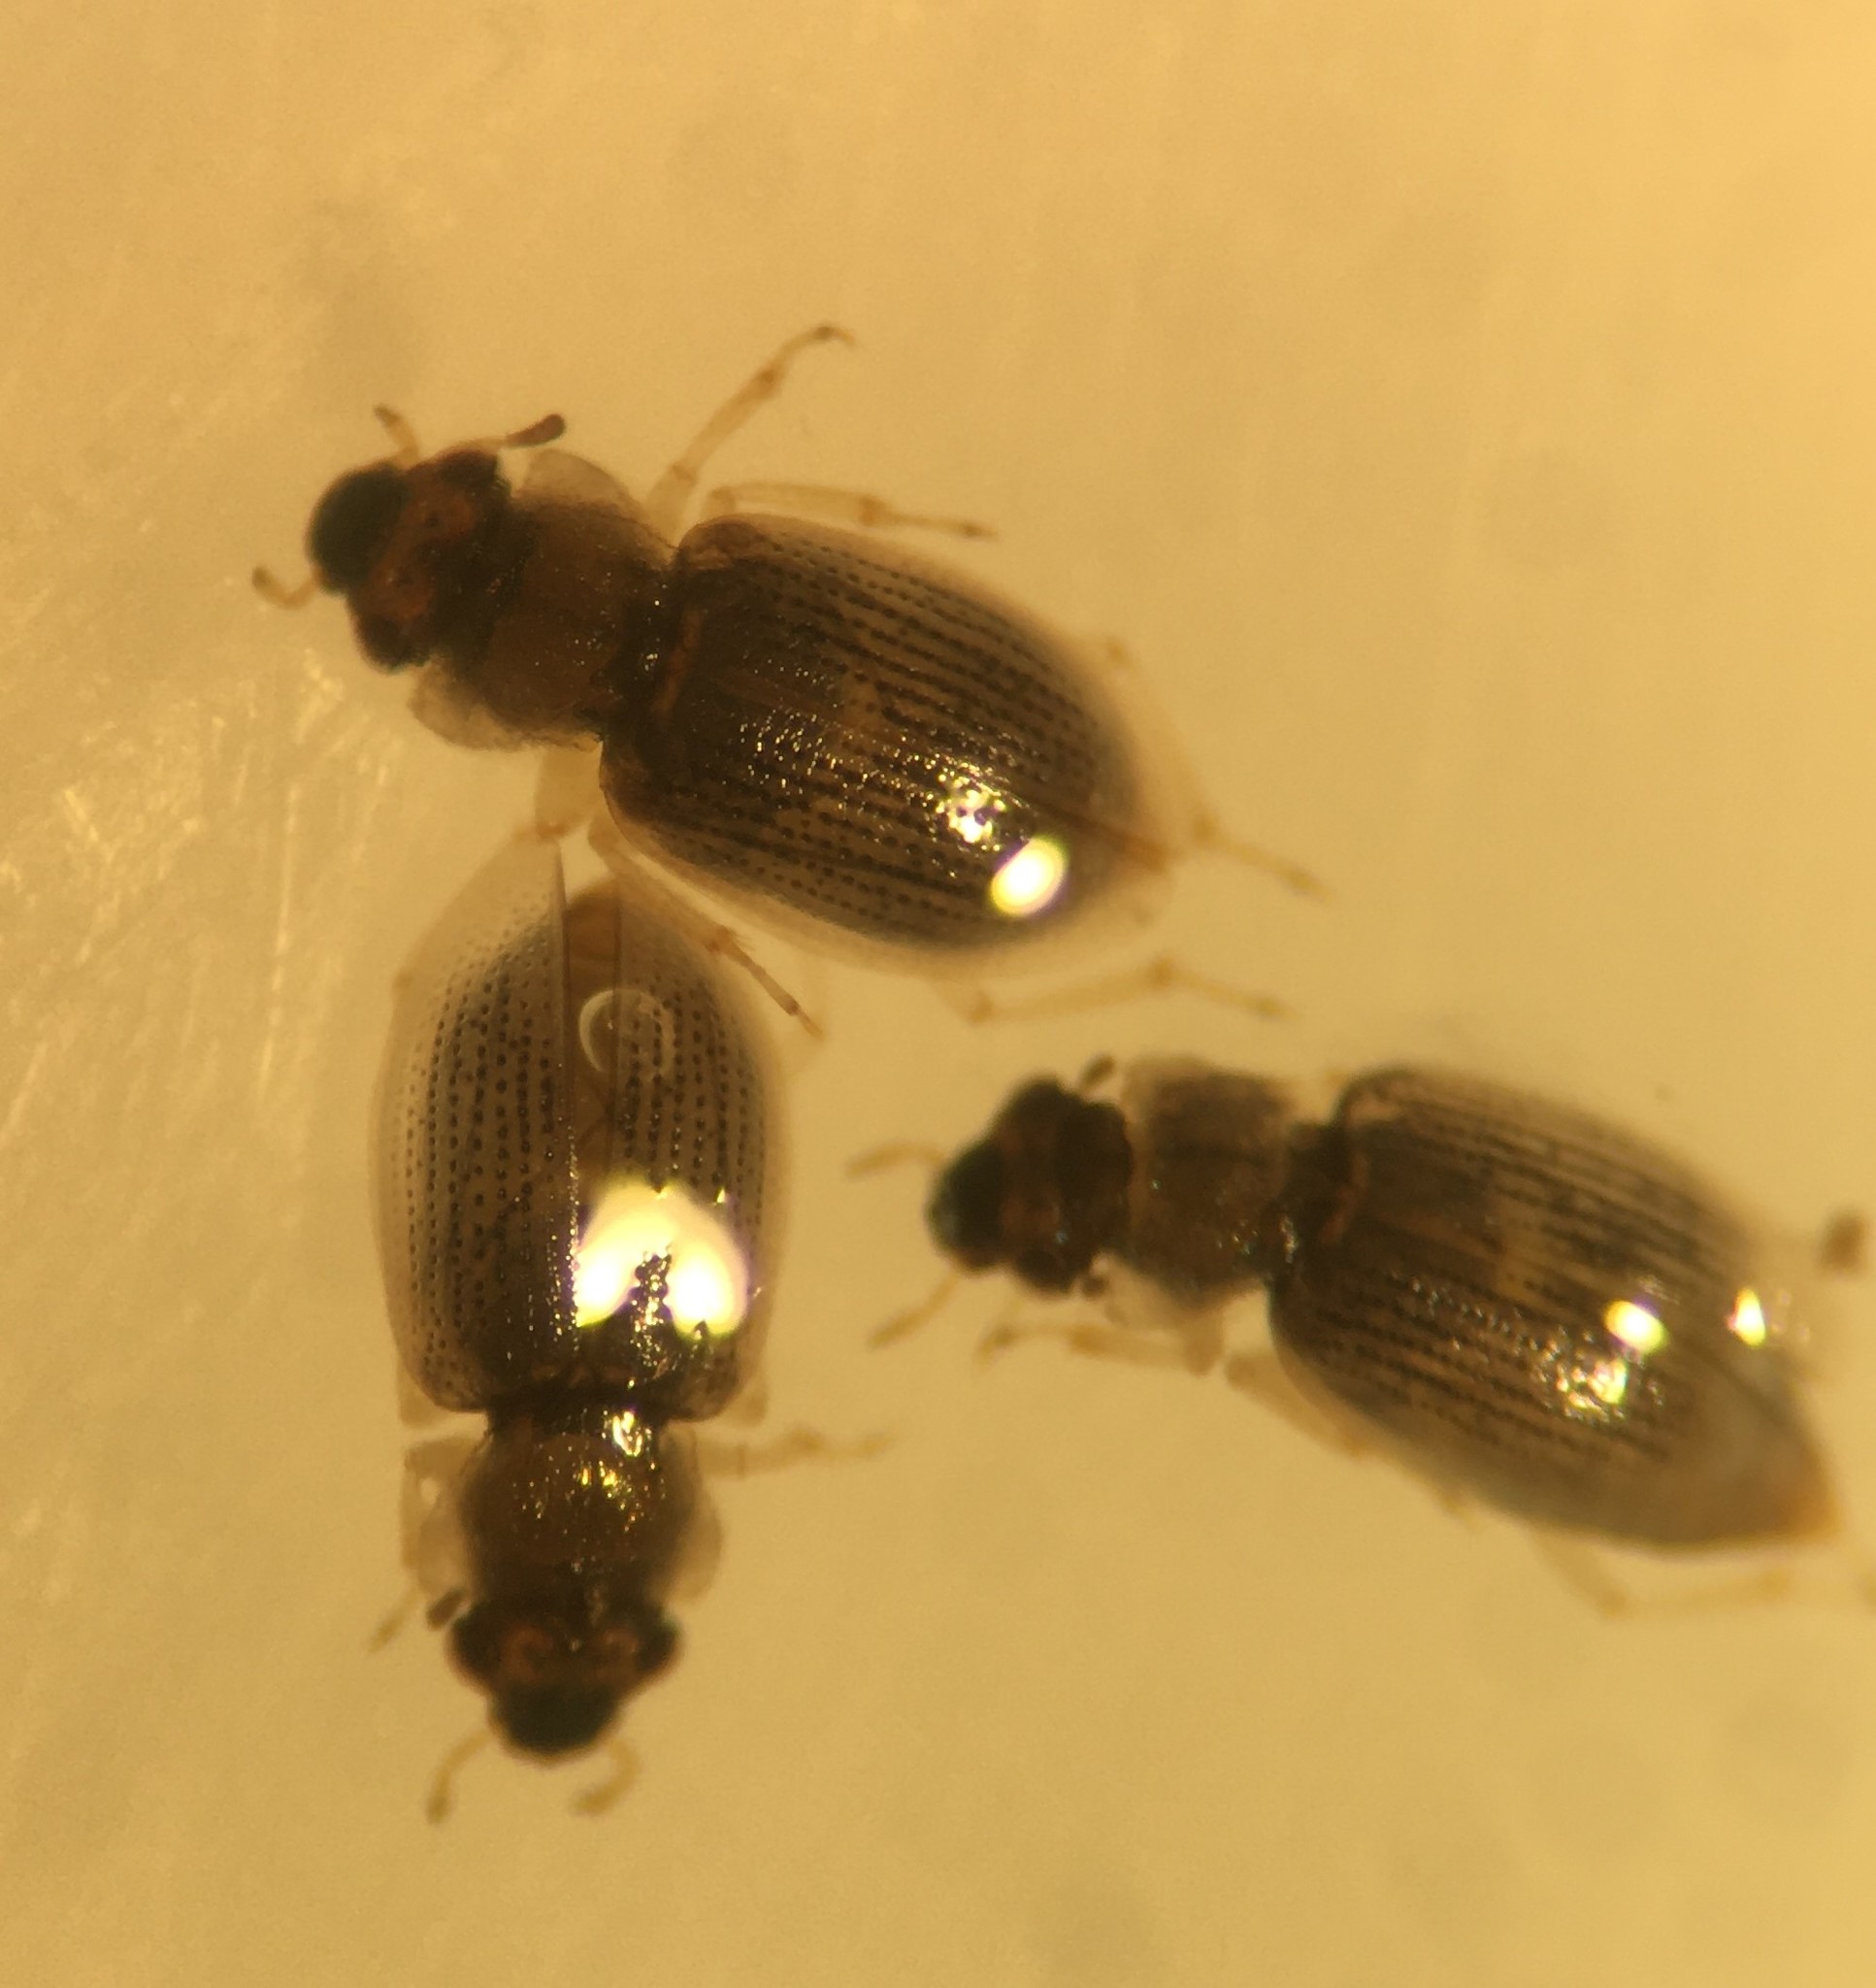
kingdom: Animalia
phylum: Arthropoda
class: Insecta
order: Coleoptera
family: Hydraenidae
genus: Ochthebius
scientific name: Ochthebius attritus
